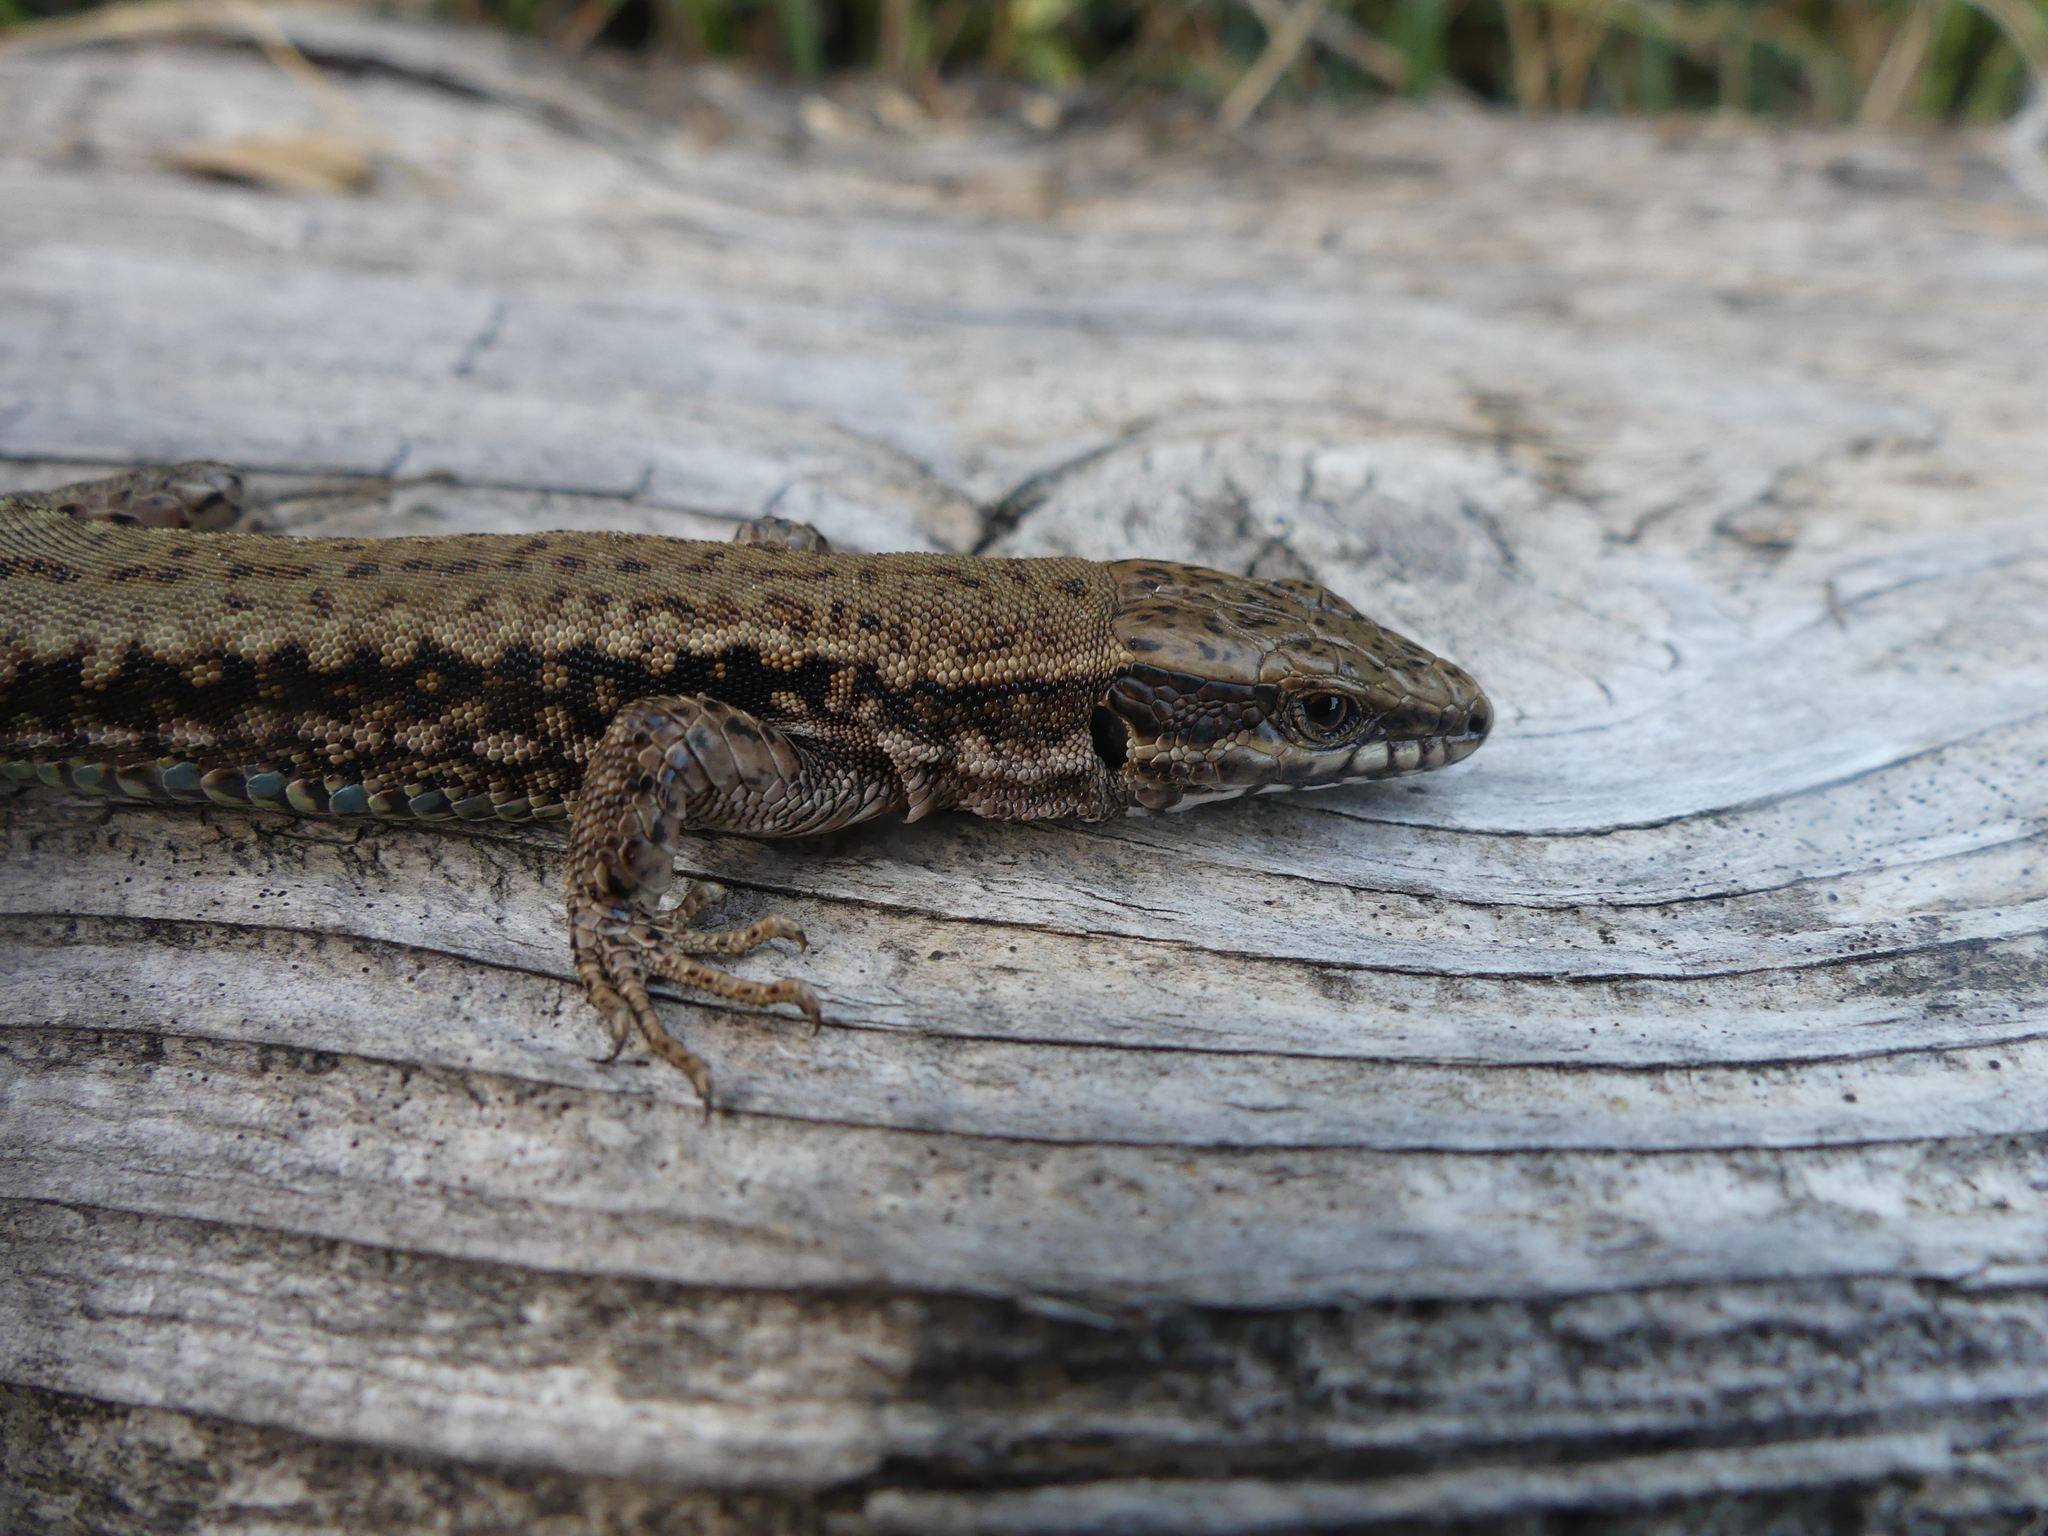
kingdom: Animalia
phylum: Chordata
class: Squamata
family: Lacertidae
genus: Podarcis
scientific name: Podarcis muralis
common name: Common wall lizard
